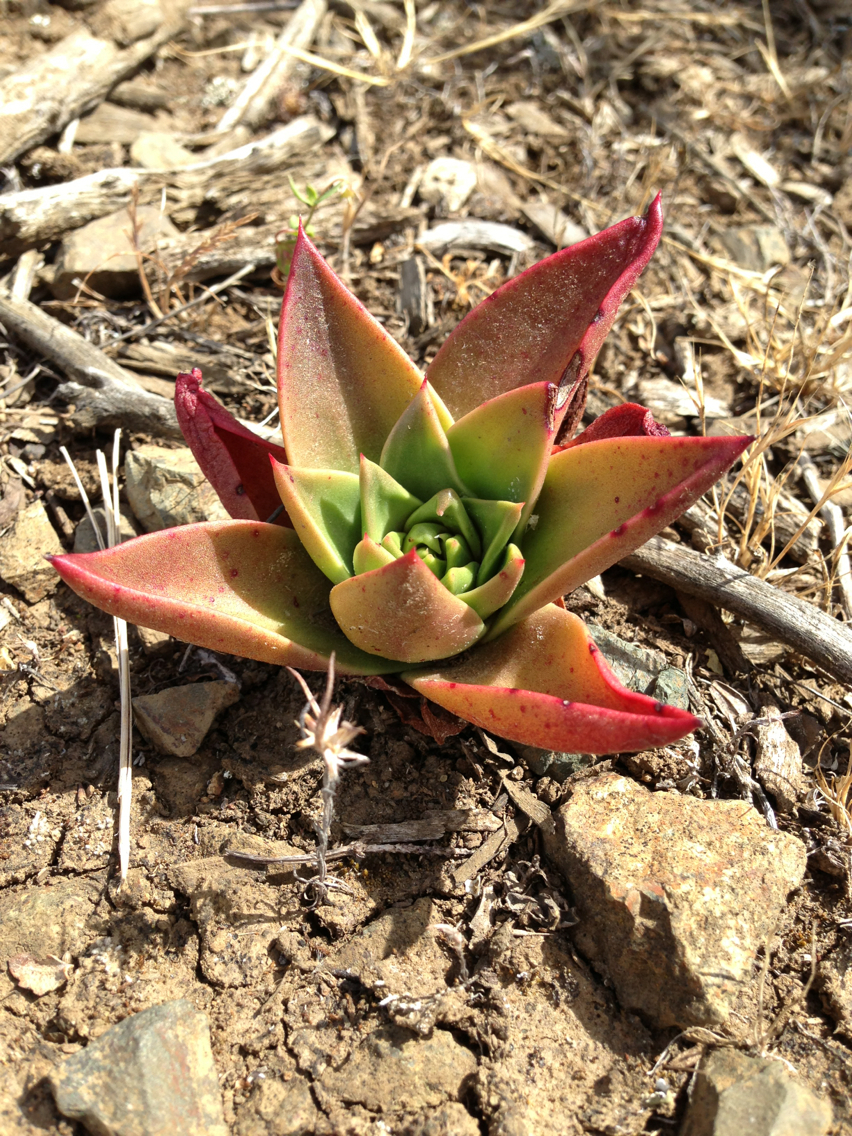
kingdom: Plantae
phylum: Tracheophyta
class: Magnoliopsida
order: Saxifragales
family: Crassulaceae
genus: Dudleya
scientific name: Dudleya farinosa
